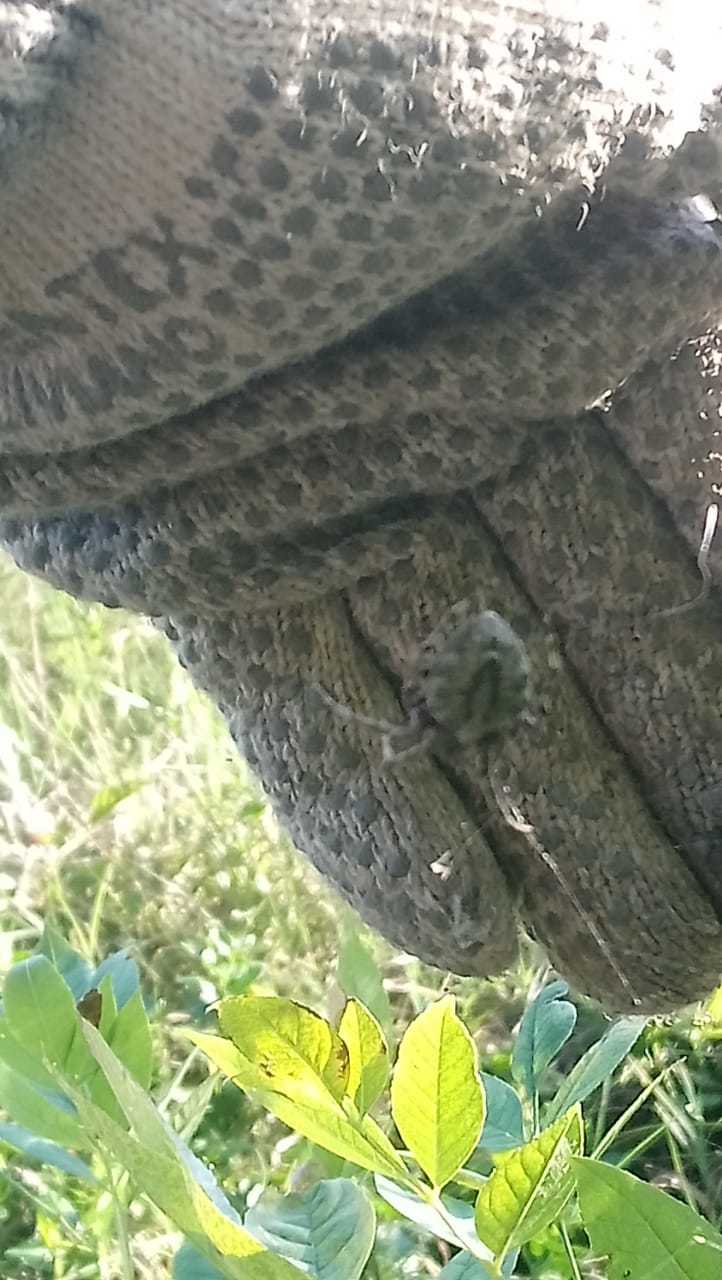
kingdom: Animalia
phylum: Arthropoda
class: Arachnida
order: Araneae
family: Araneidae
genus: Parawixia
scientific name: Parawixia audax
